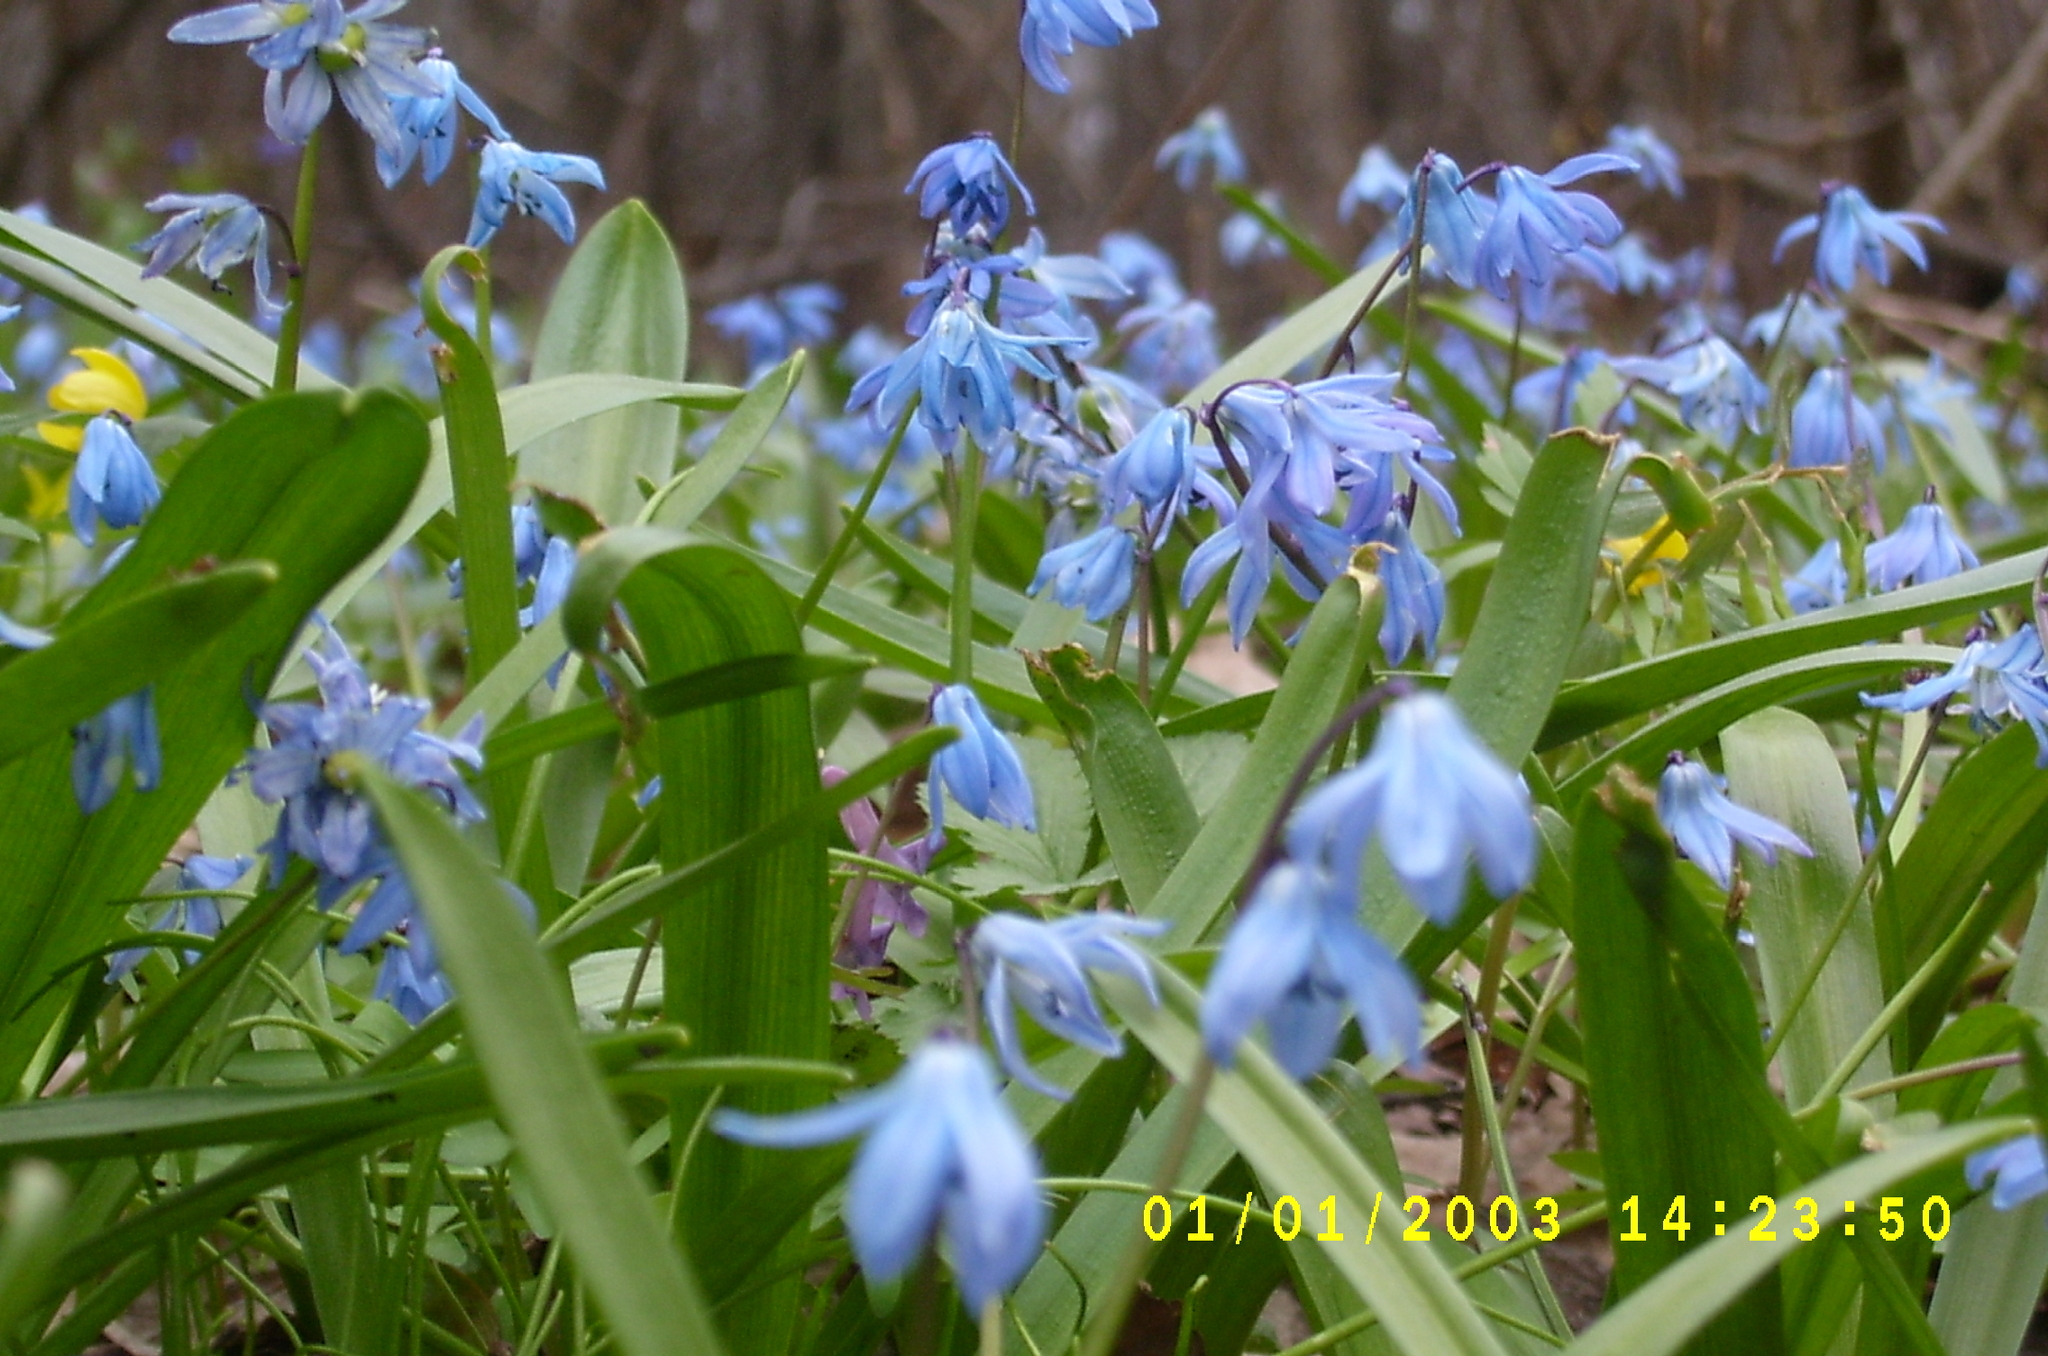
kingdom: Plantae
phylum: Tracheophyta
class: Liliopsida
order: Asparagales
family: Asparagaceae
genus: Scilla
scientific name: Scilla siberica
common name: Siberian squill
